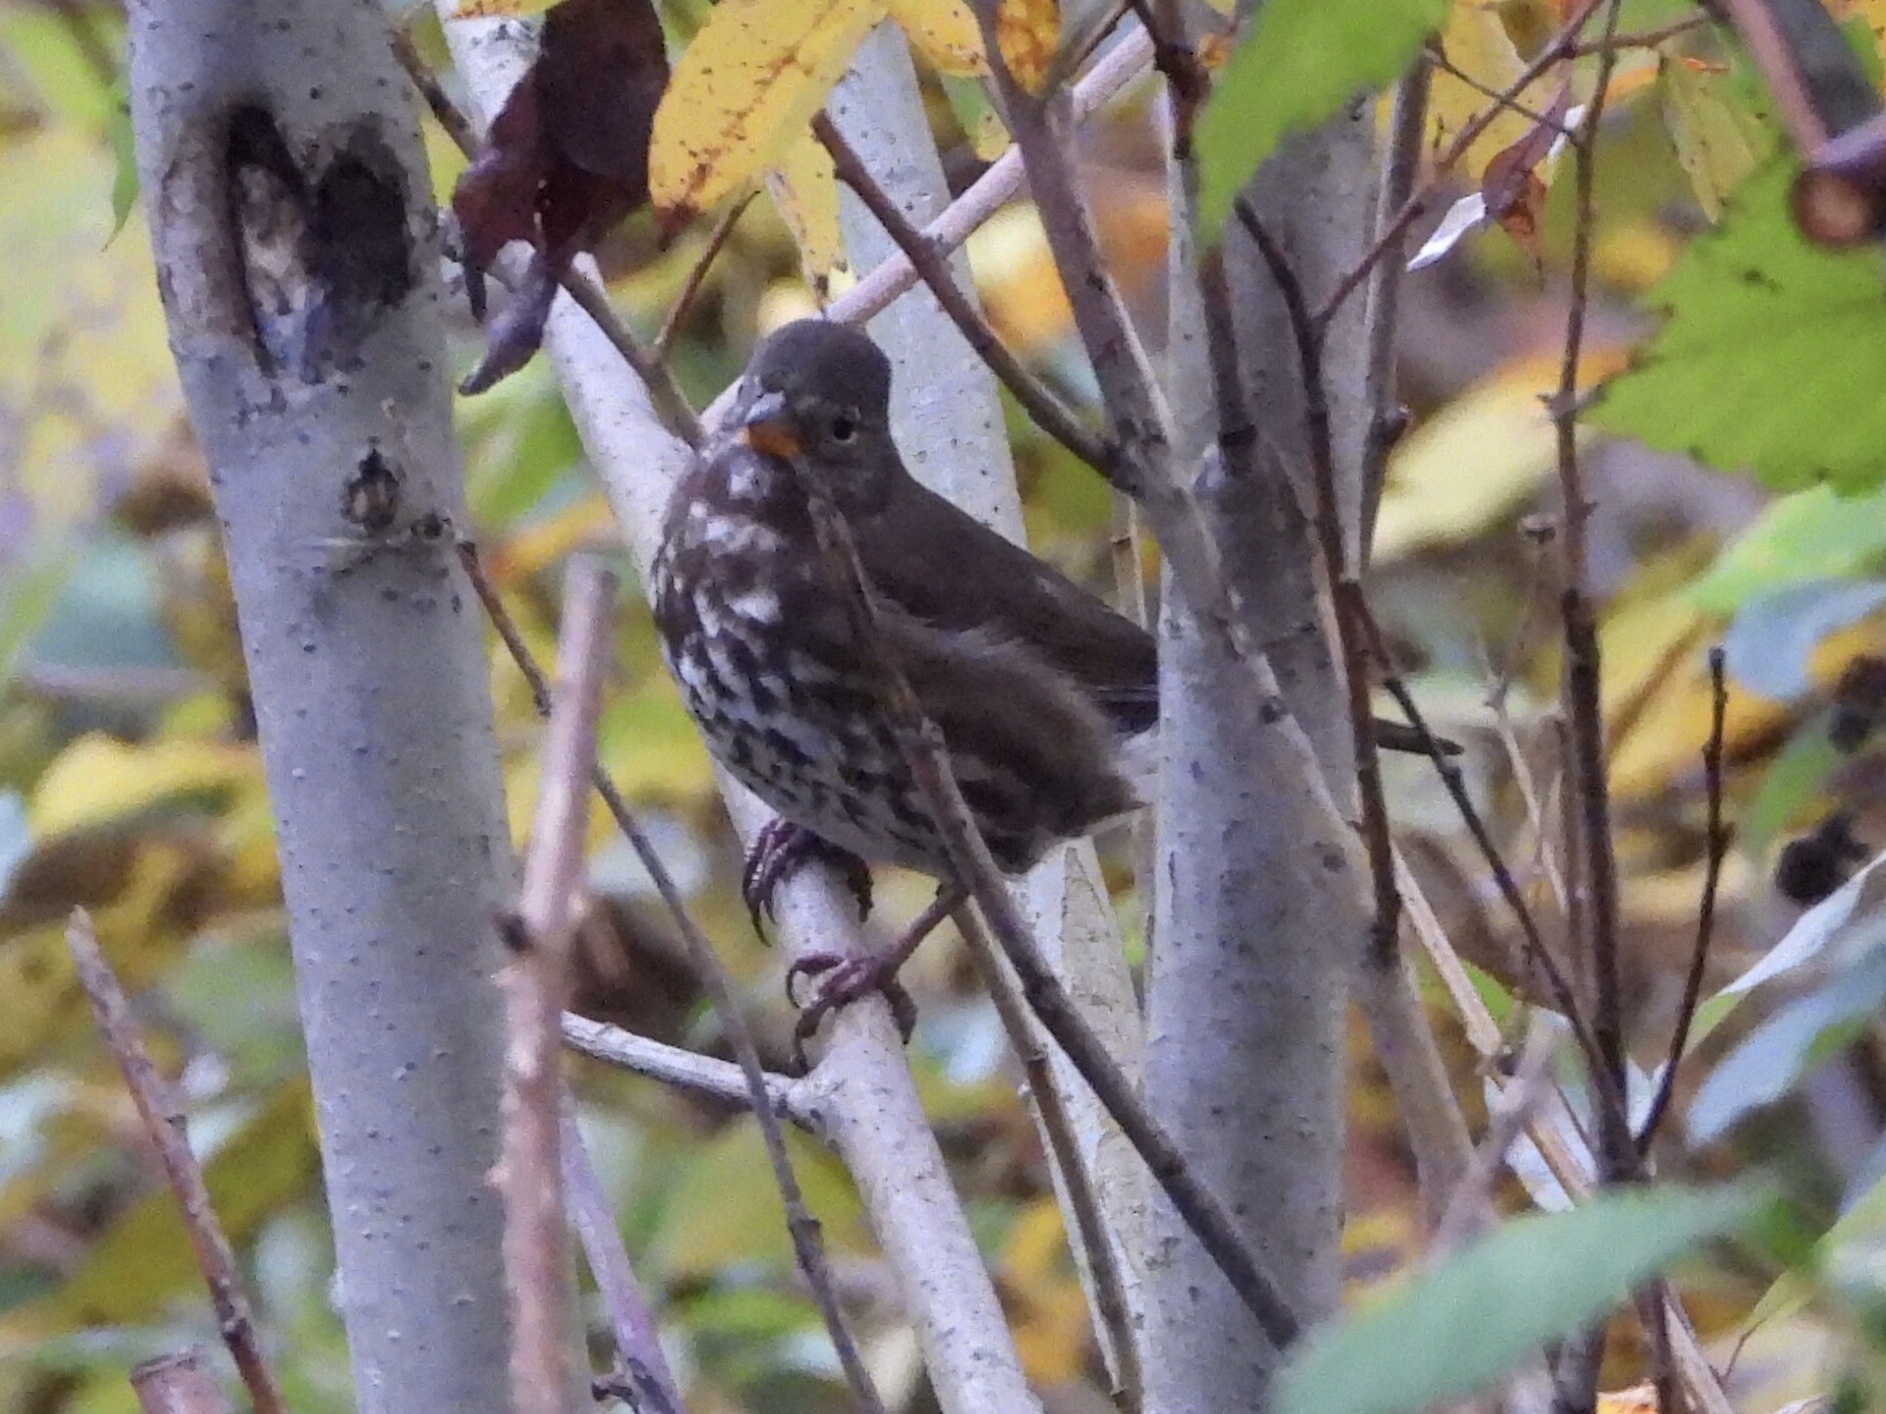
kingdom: Animalia
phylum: Chordata
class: Aves
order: Passeriformes
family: Passerellidae
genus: Passerella
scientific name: Passerella iliaca
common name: Fox sparrow
